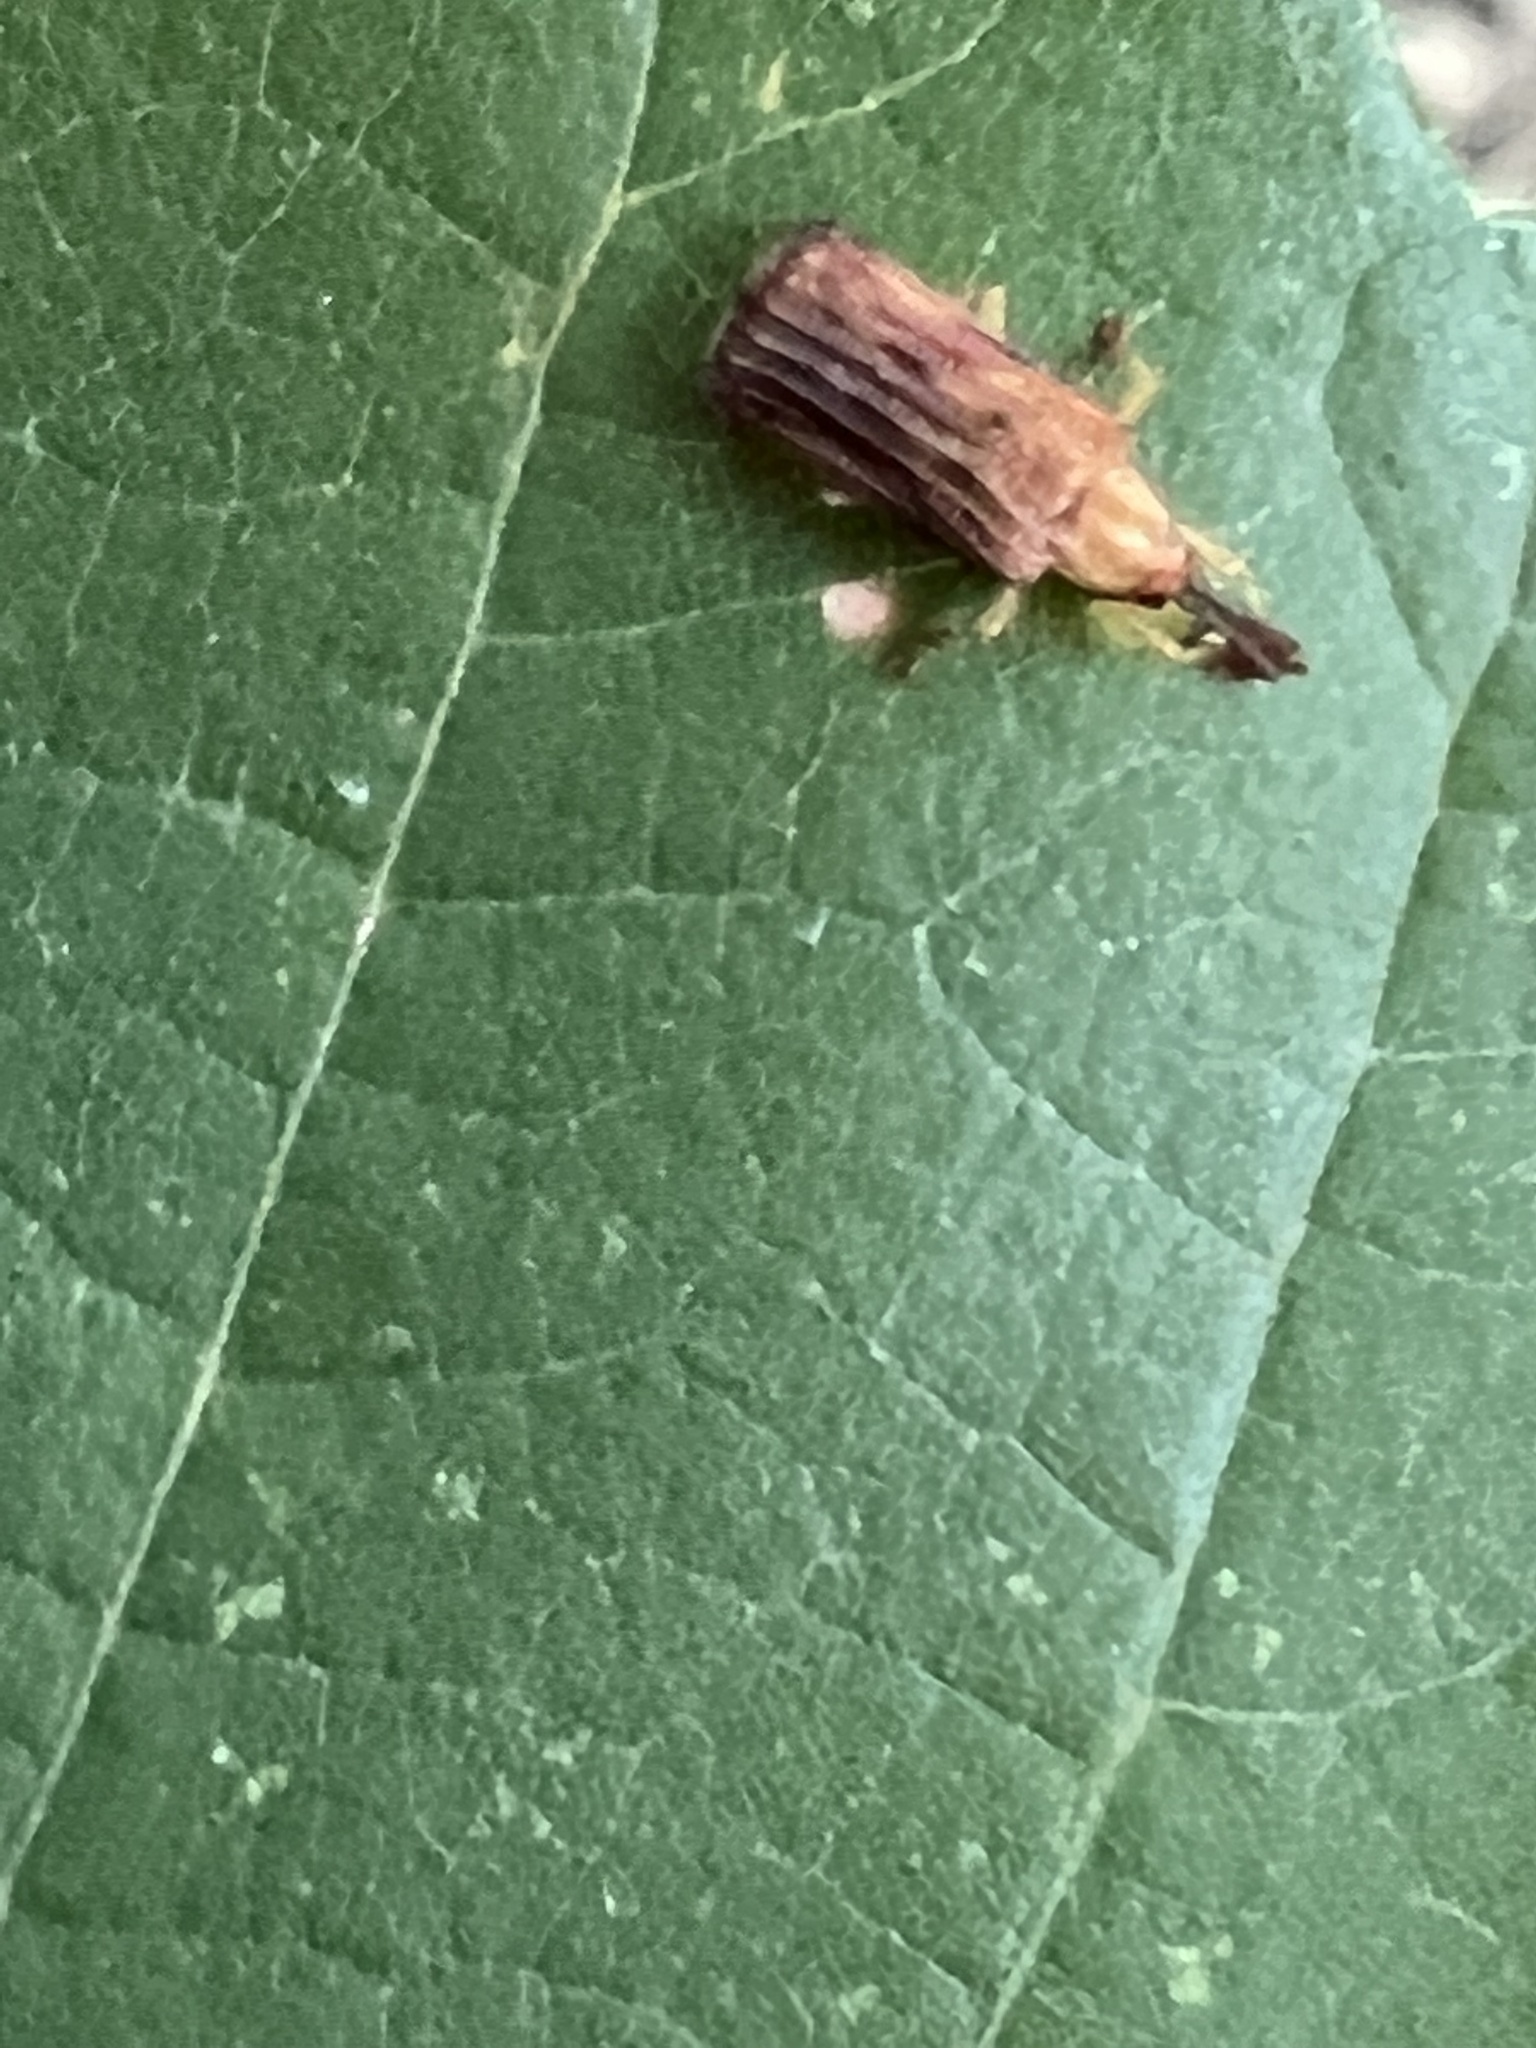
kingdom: Animalia
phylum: Arthropoda
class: Insecta
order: Coleoptera
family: Chrysomelidae
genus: Baliosus
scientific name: Baliosus nervosus
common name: Basswood leaf miner
